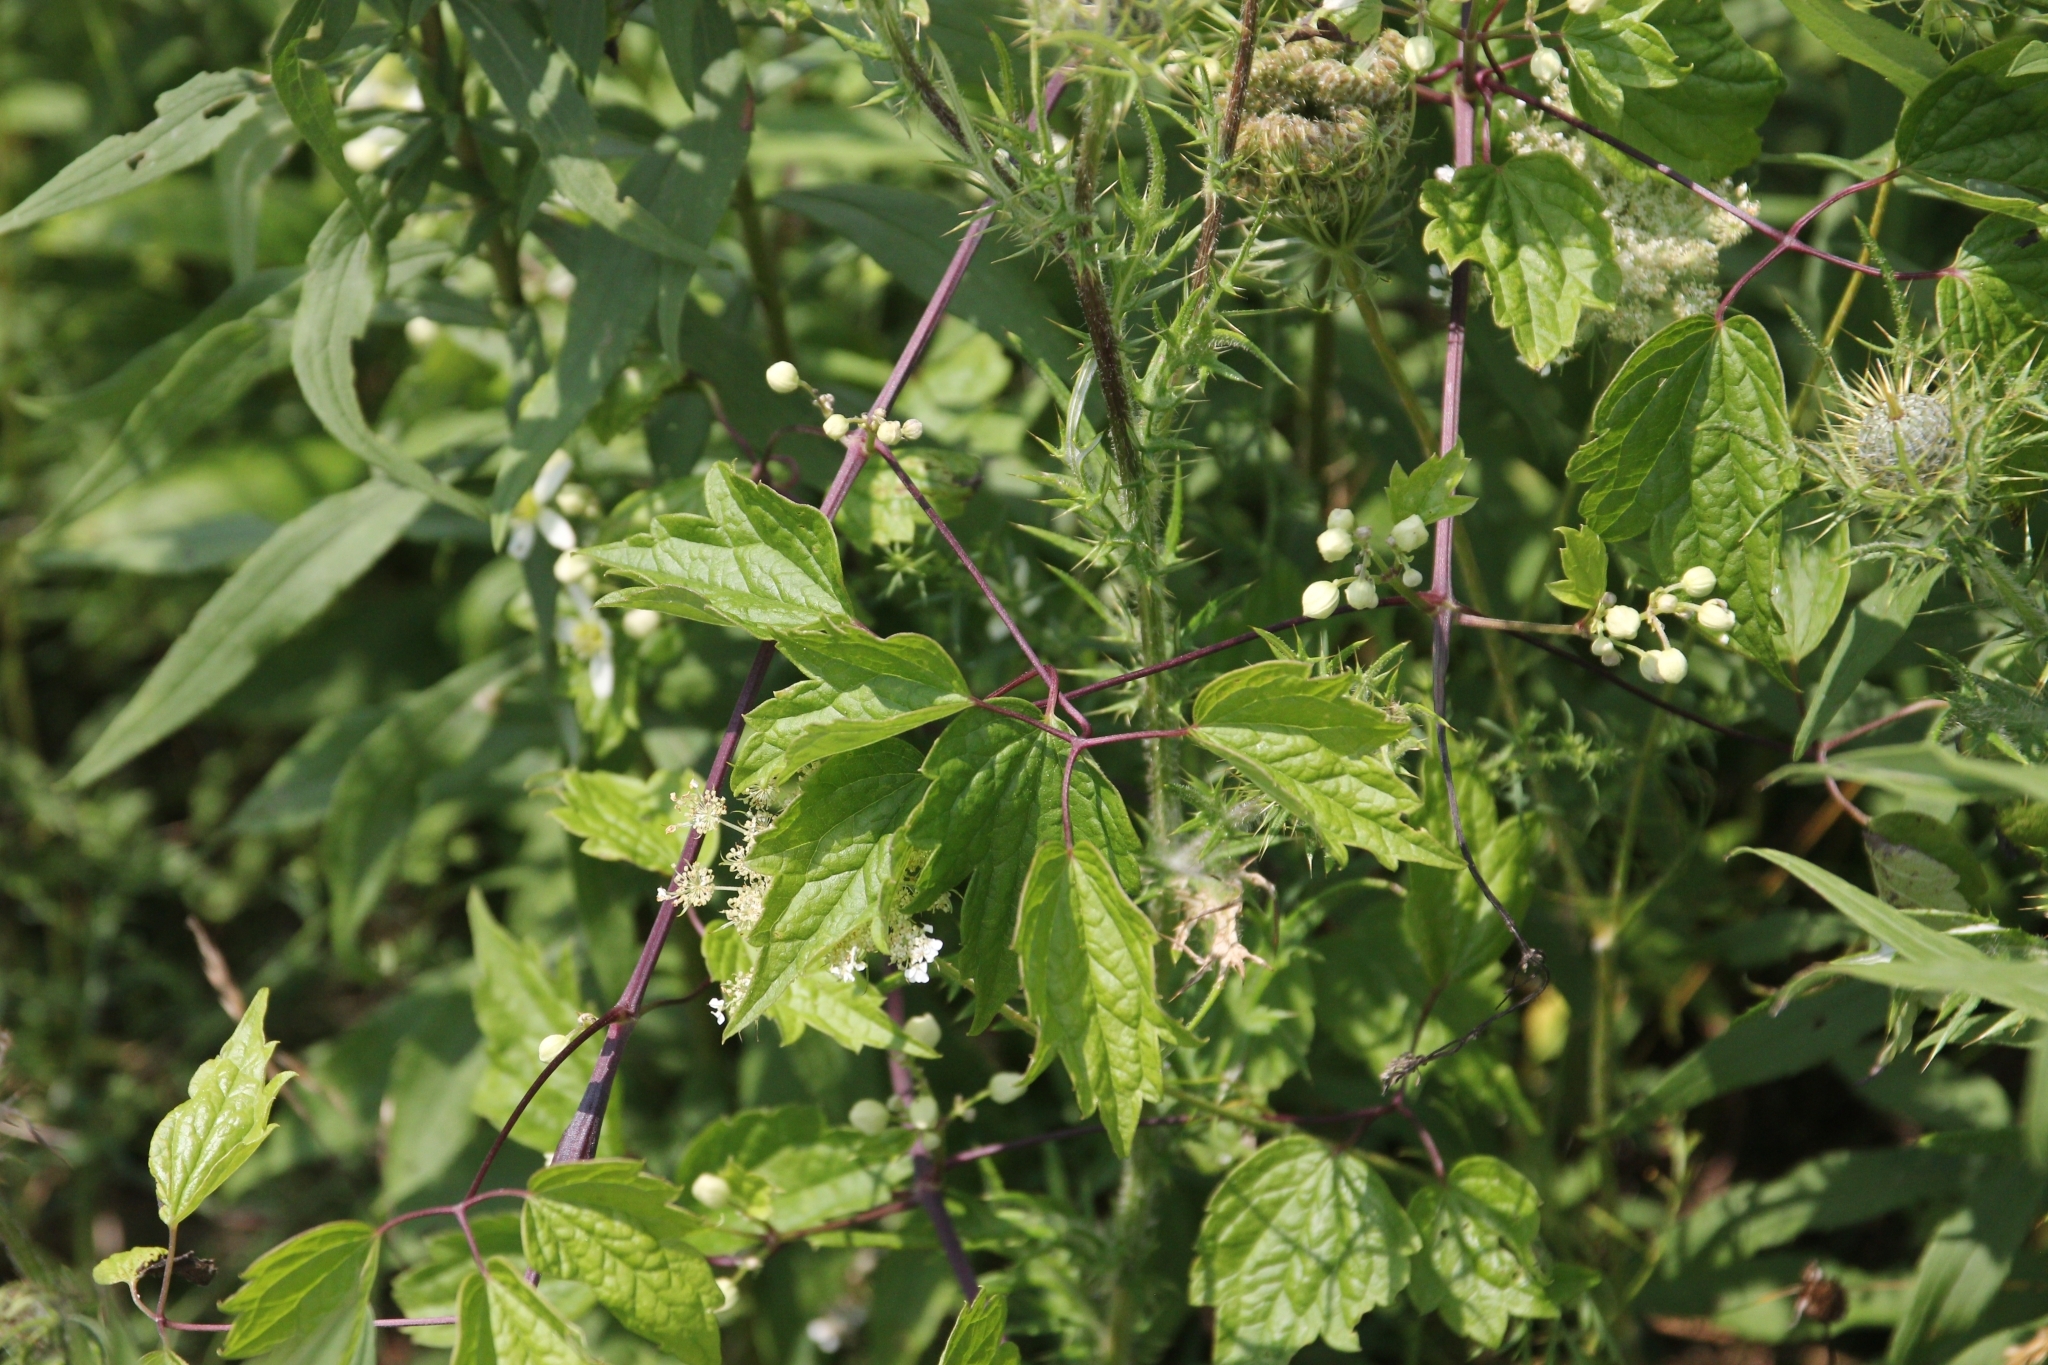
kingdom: Plantae
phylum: Tracheophyta
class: Magnoliopsida
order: Ranunculales
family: Ranunculaceae
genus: Clematis
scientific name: Clematis virginiana
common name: Virgin's-bower
